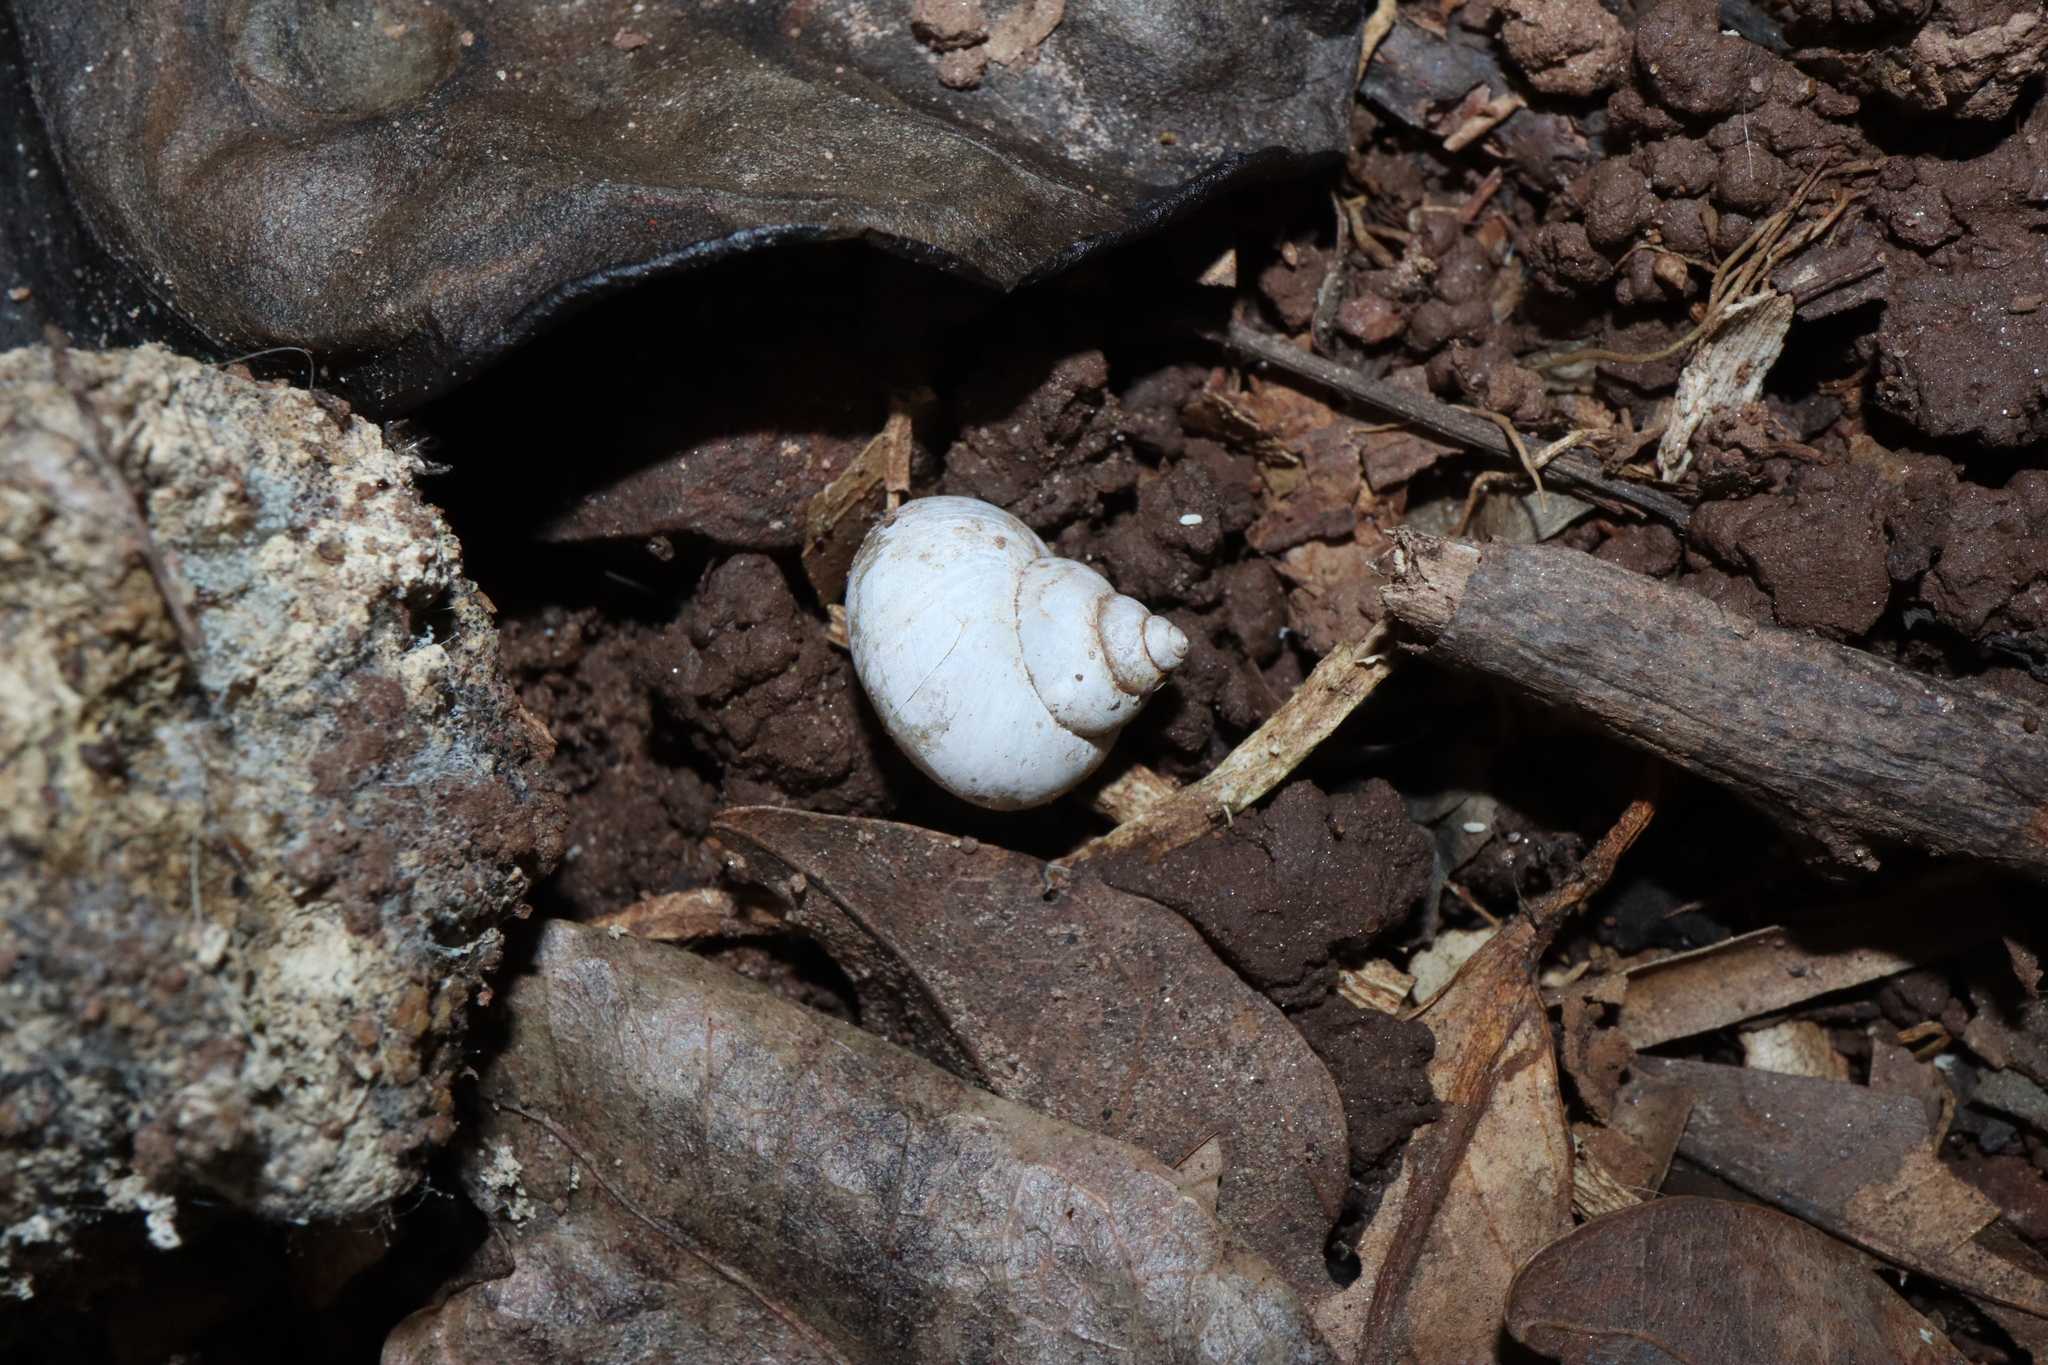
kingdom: Animalia
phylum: Mollusca
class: Gastropoda
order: Architaenioglossa
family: Cyclophoridae
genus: Leptopoma
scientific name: Leptopoma perlucidum
